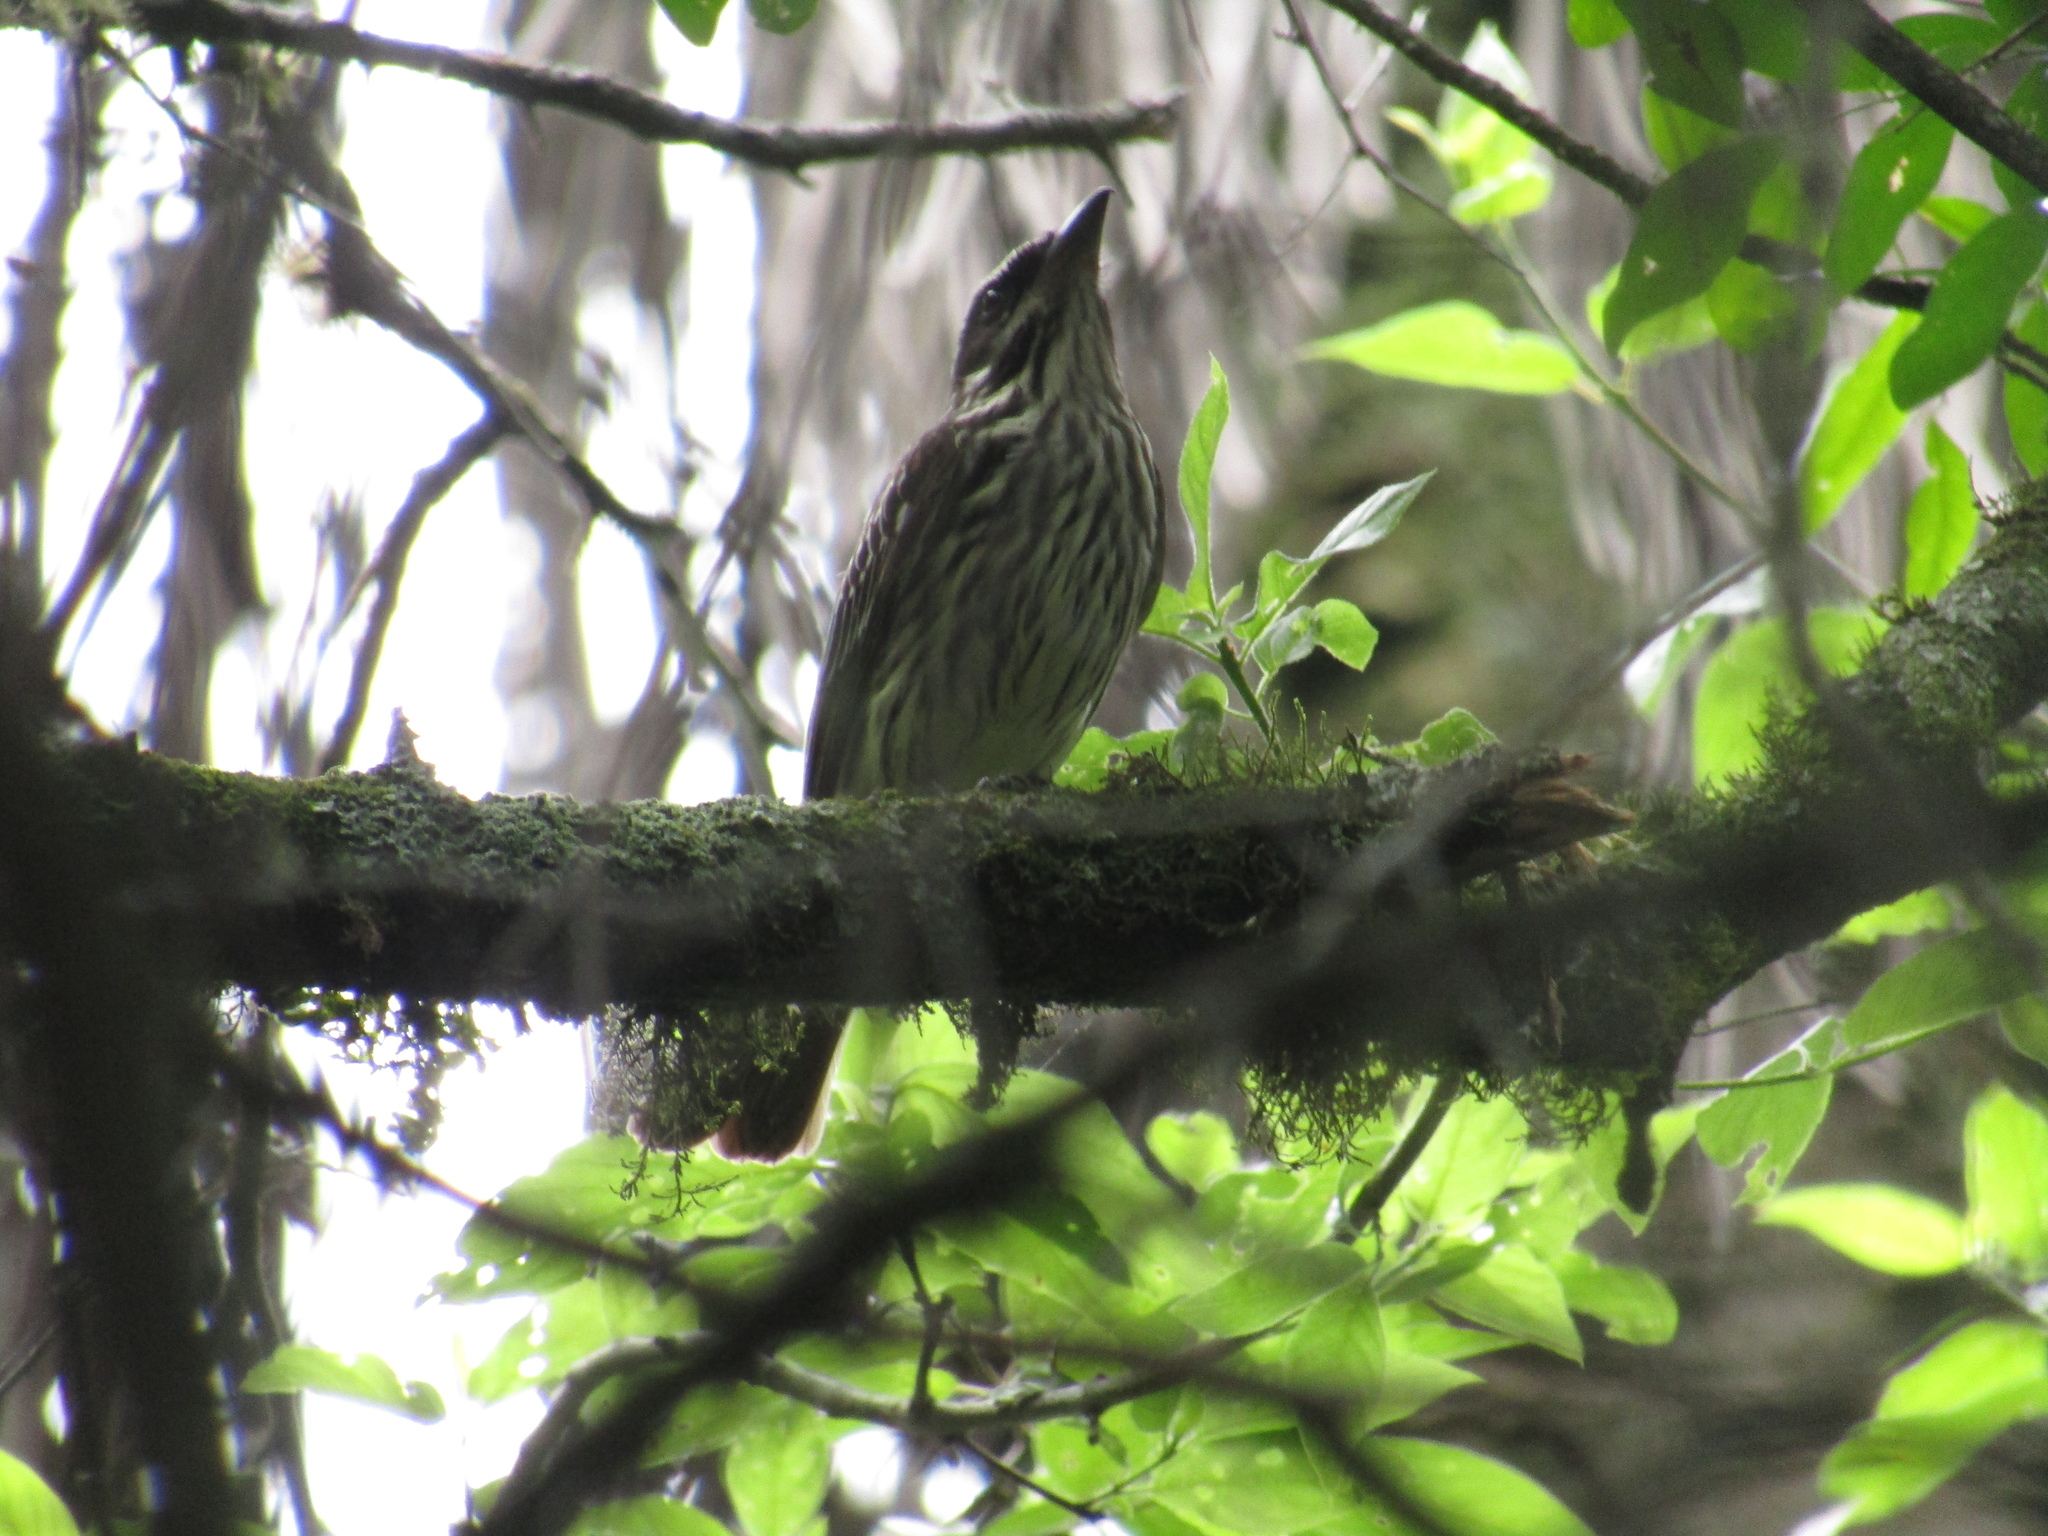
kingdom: Animalia
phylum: Chordata
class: Aves
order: Passeriformes
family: Tyrannidae
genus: Myiodynastes
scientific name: Myiodynastes maculatus
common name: Streaked flycatcher
